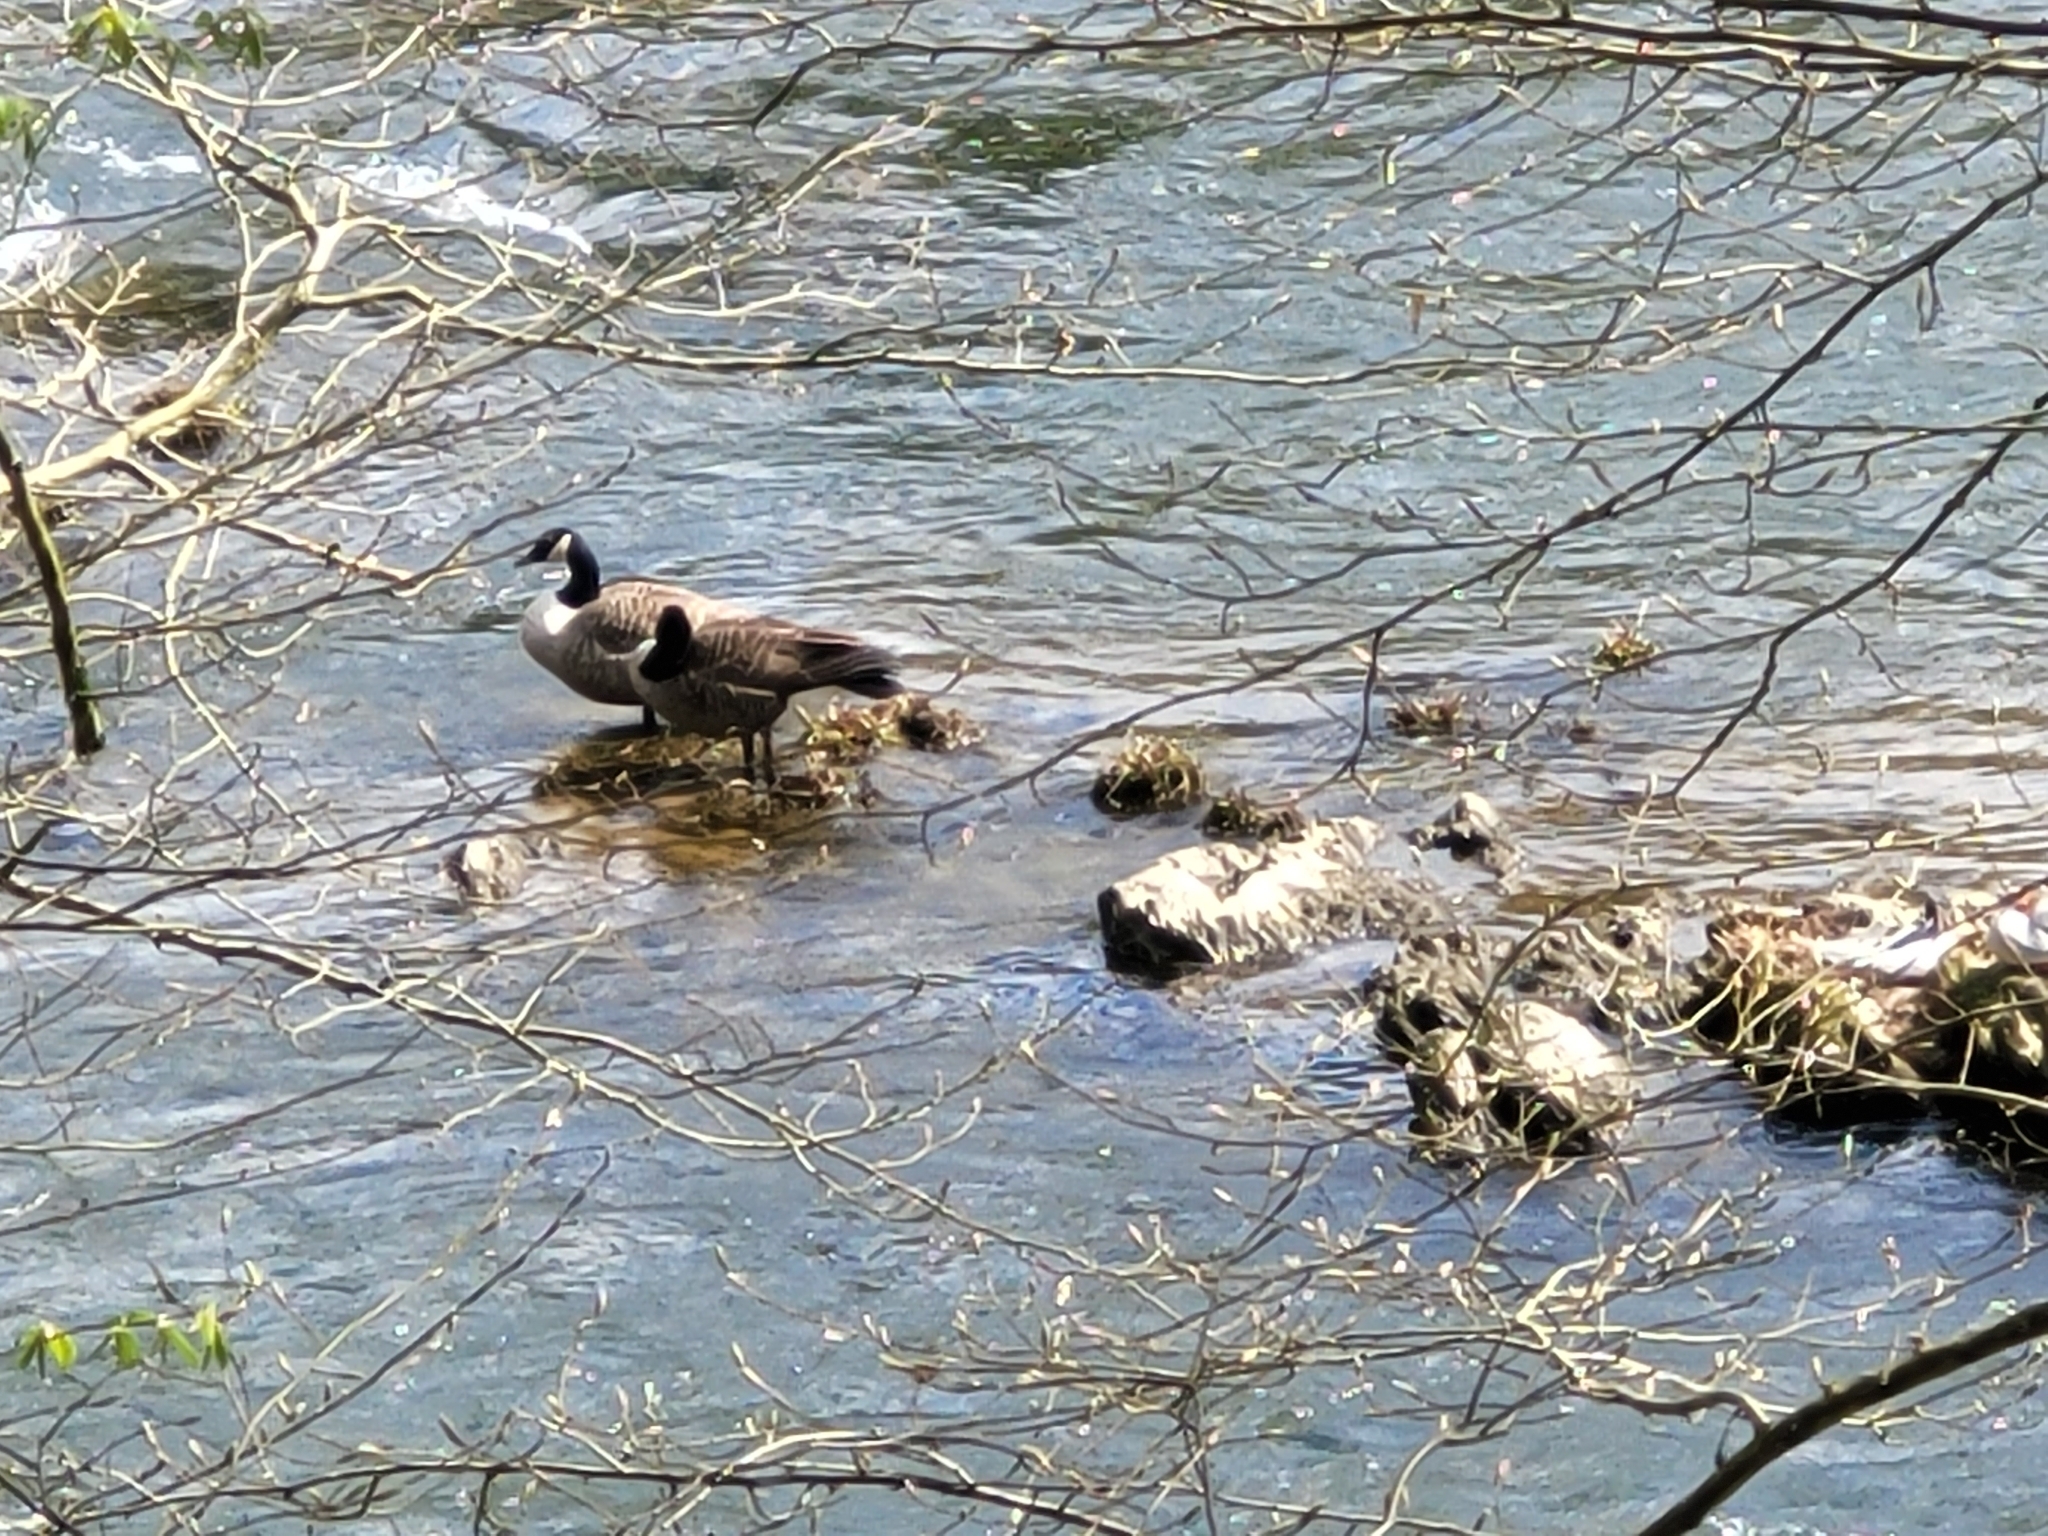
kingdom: Animalia
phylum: Chordata
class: Aves
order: Anseriformes
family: Anatidae
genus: Branta
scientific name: Branta canadensis
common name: Canada goose
